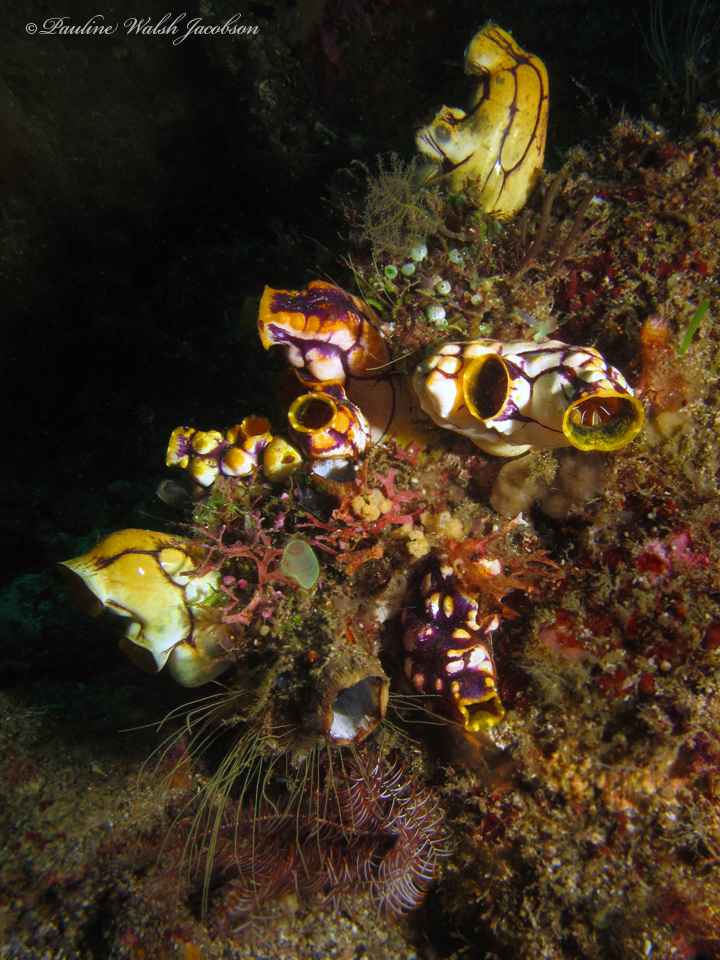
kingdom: Animalia
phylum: Chordata
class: Ascidiacea
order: Stolidobranchia
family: Styelidae
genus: Polycarpa
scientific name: Polycarpa aurata
